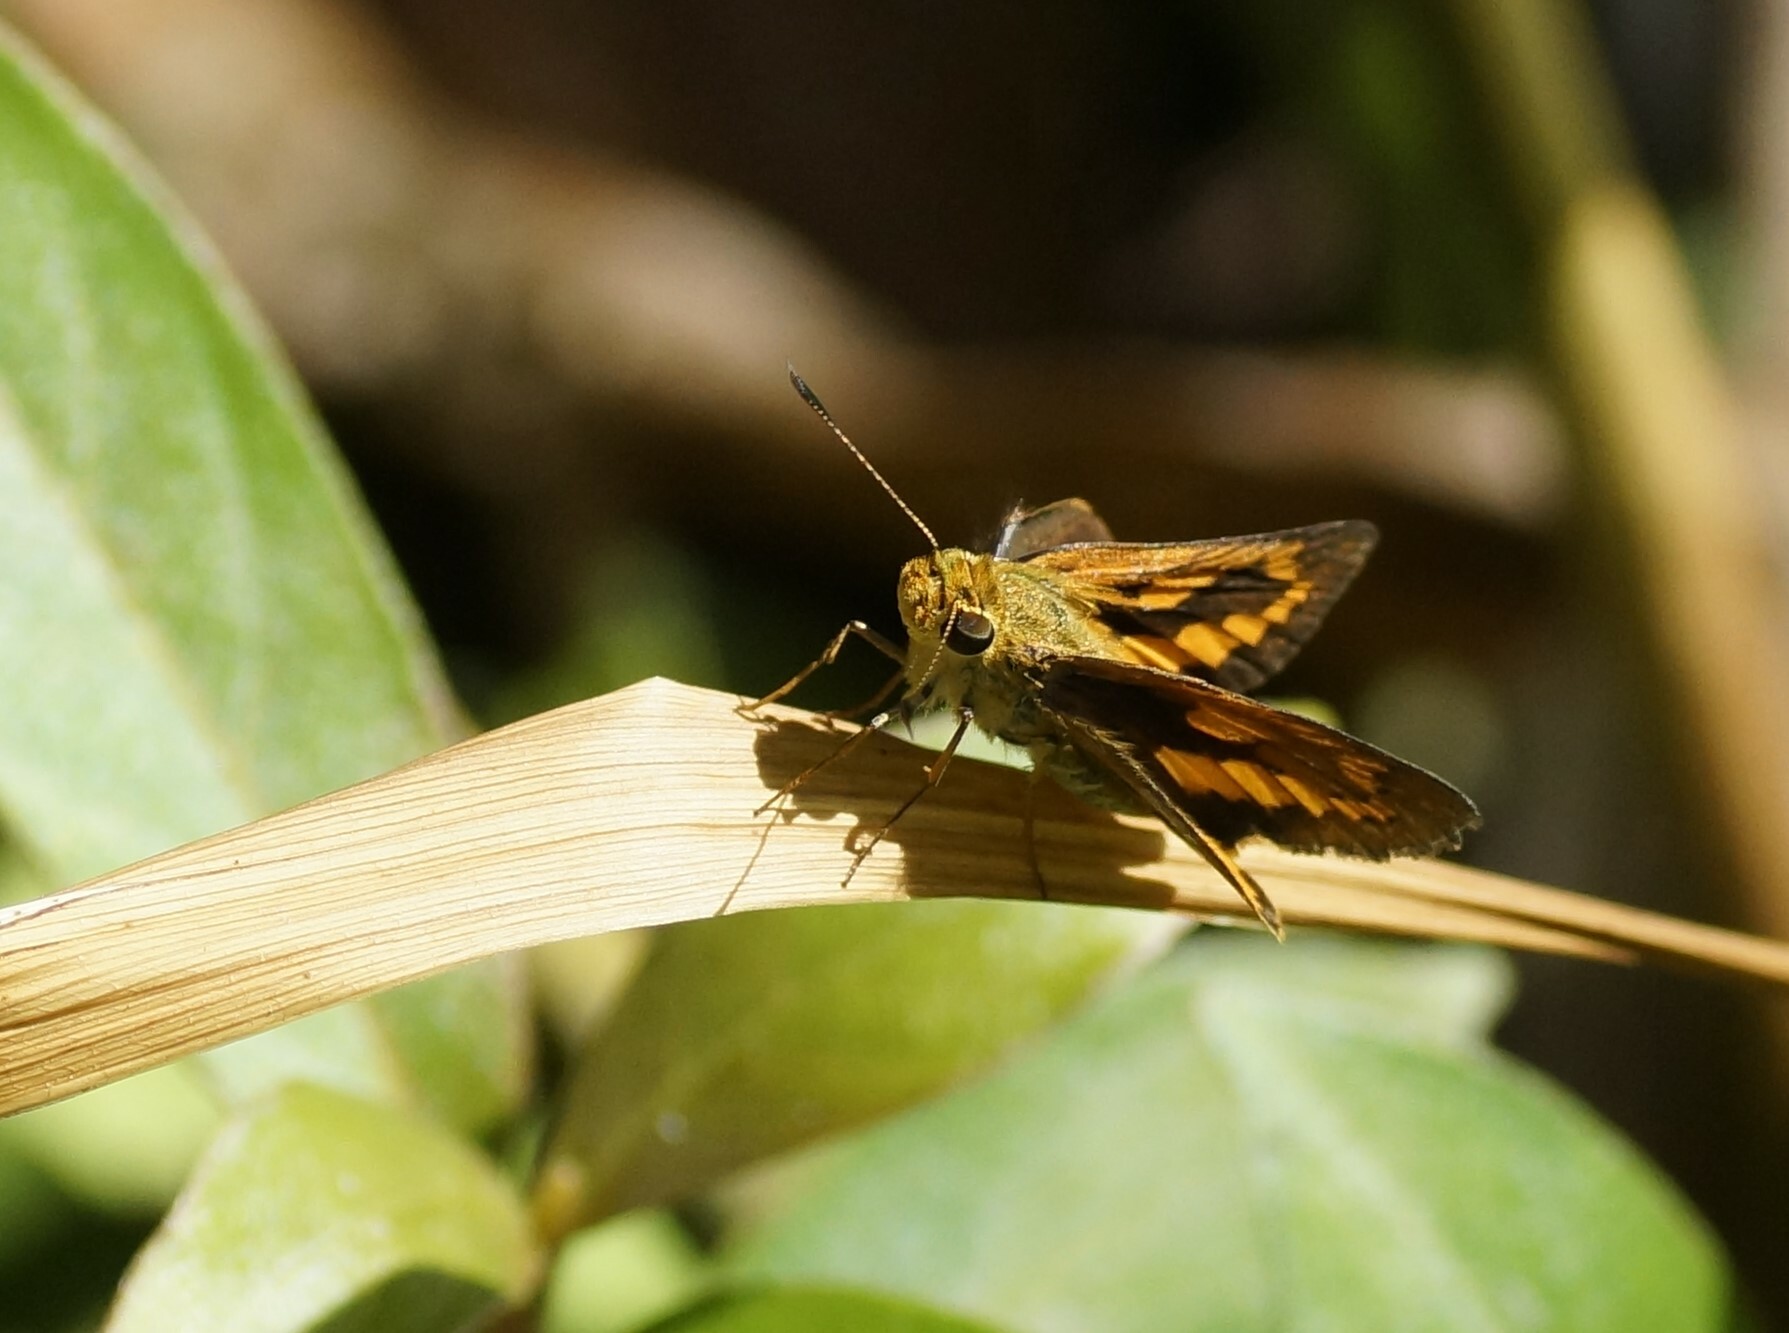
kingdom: Animalia
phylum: Arthropoda
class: Insecta
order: Lepidoptera
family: Hesperiidae
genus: Telicota
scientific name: Telicota paceka
